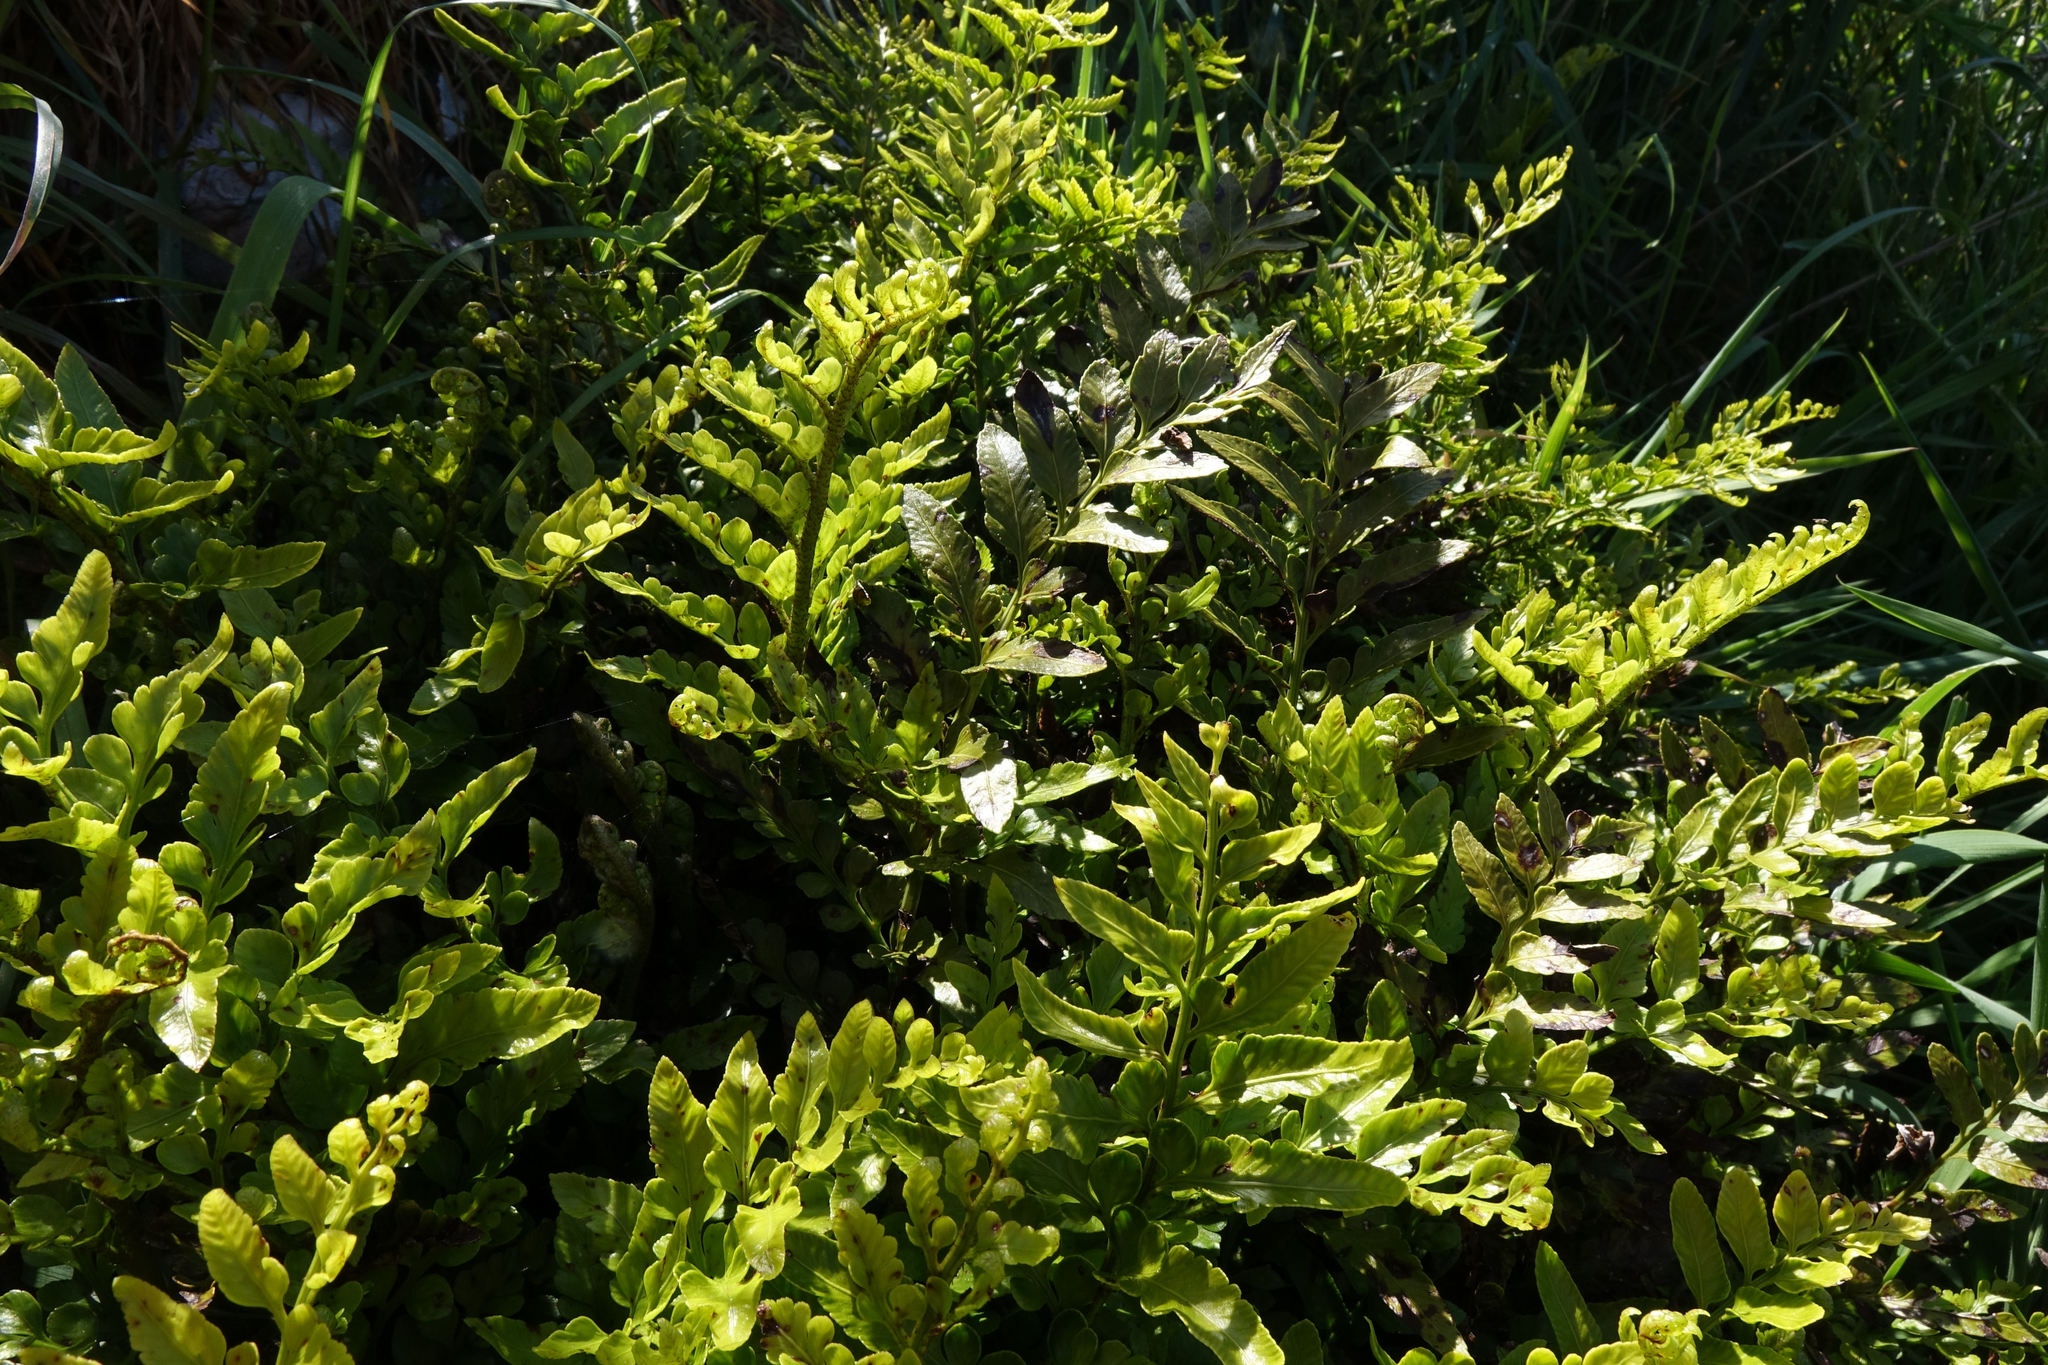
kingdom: Plantae
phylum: Tracheophyta
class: Polypodiopsida
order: Polypodiales
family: Aspleniaceae
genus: Asplenium
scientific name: Asplenium lyallii
